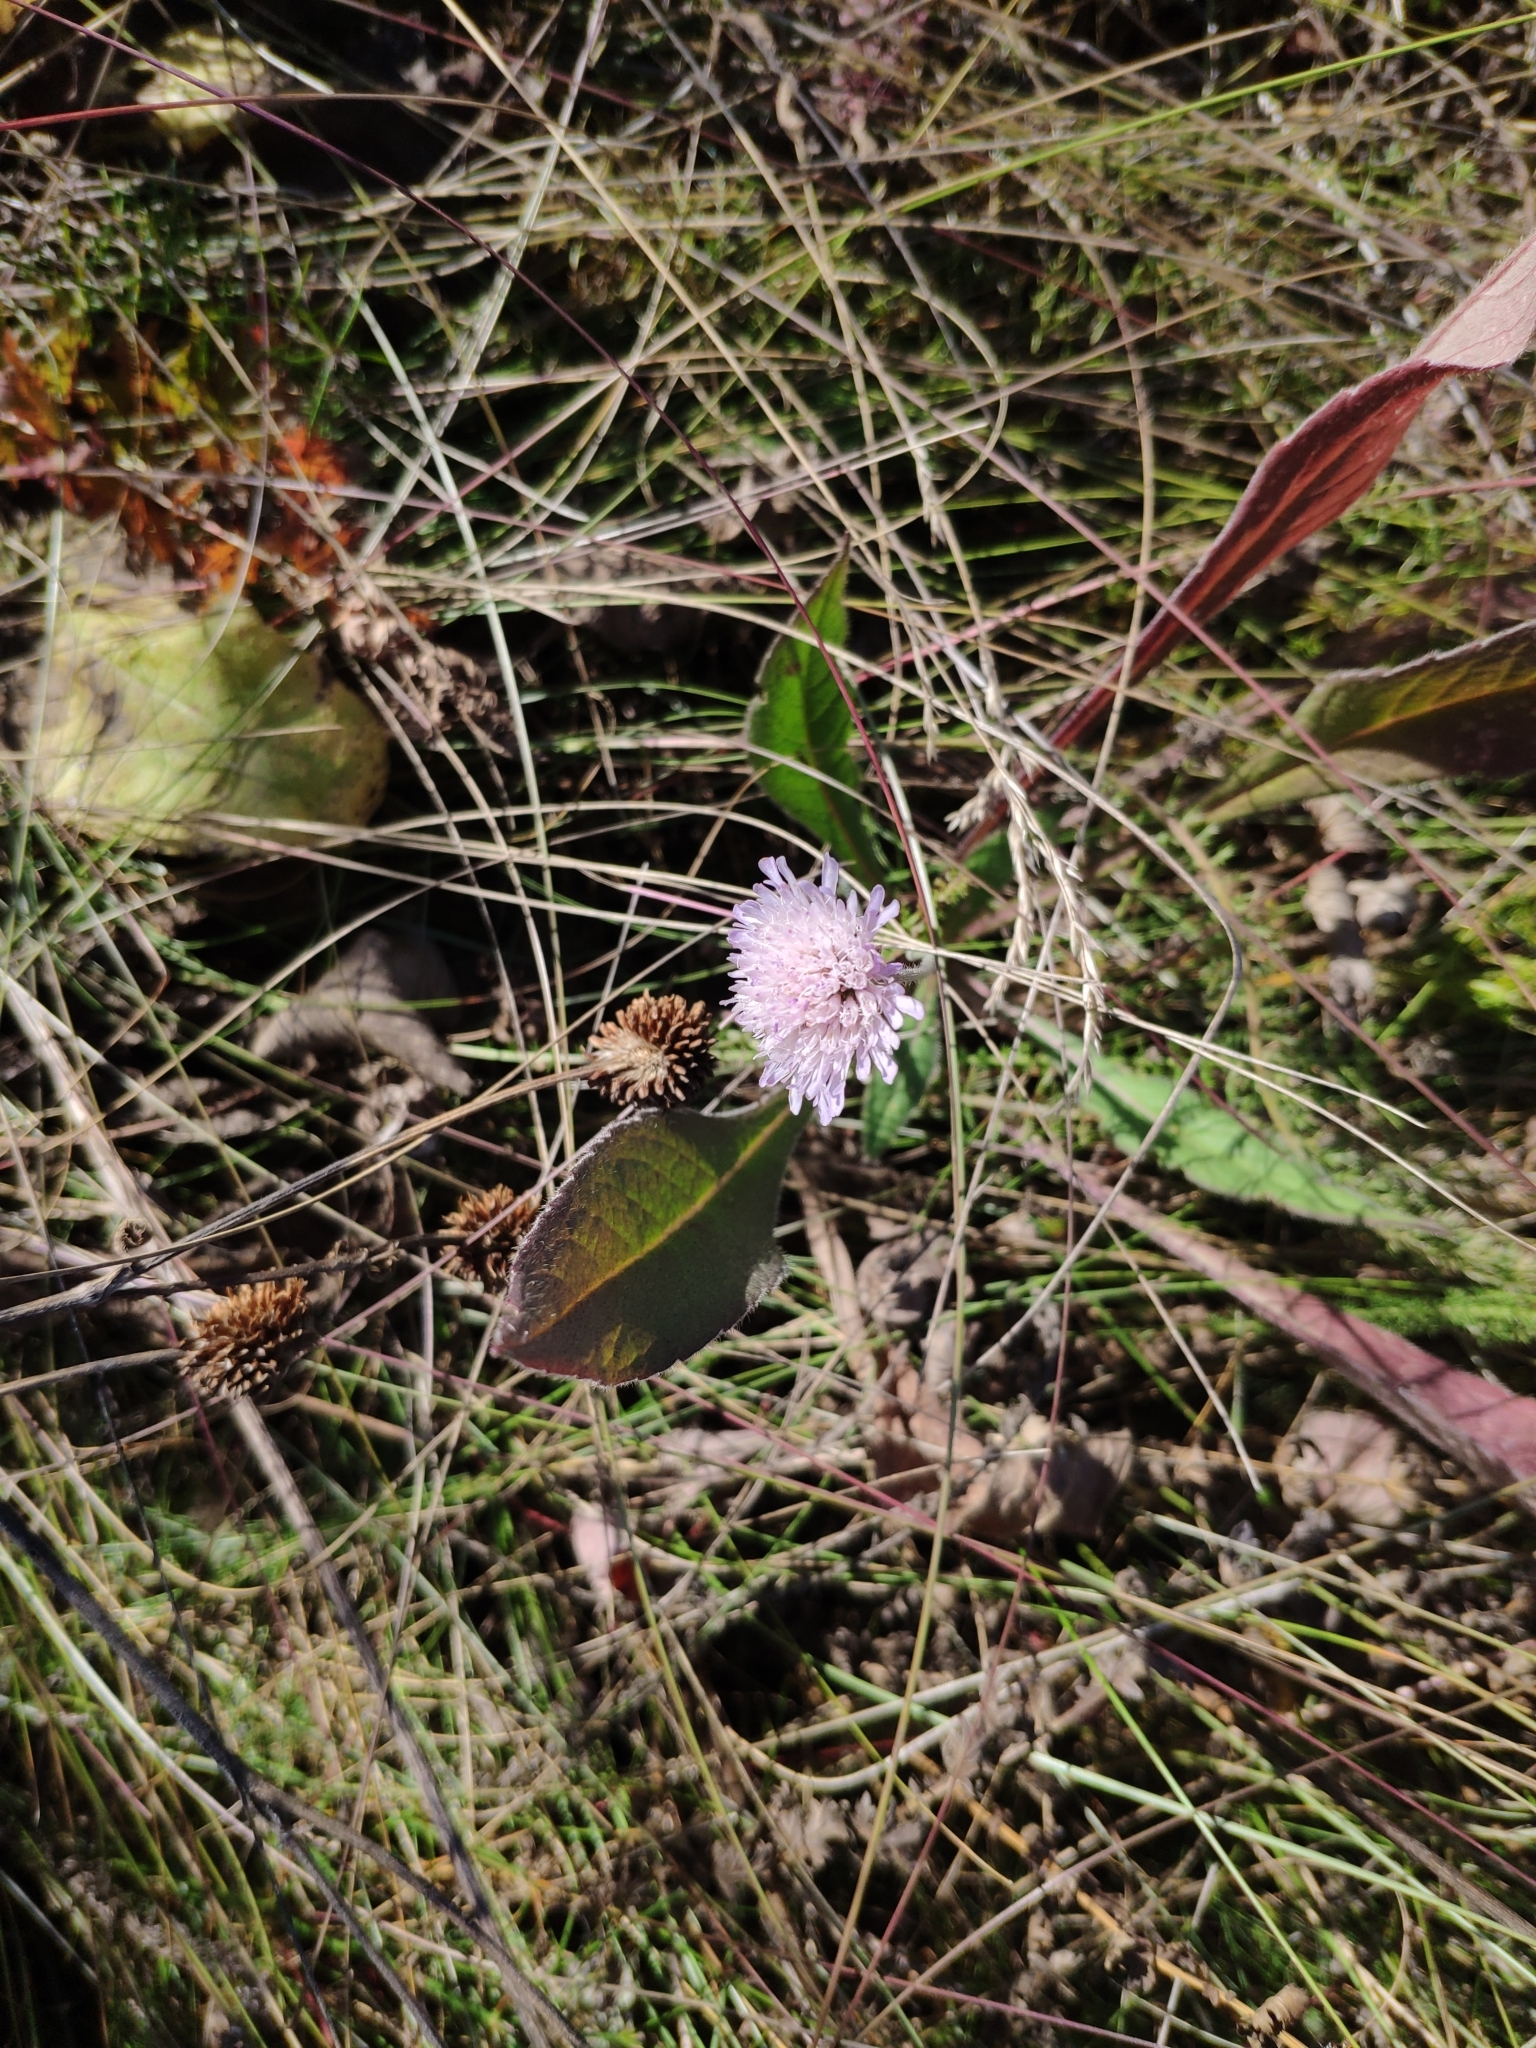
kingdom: Plantae
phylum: Tracheophyta
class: Magnoliopsida
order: Dipsacales
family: Caprifoliaceae
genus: Knautia
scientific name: Knautia arvensis
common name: Field scabiosa
